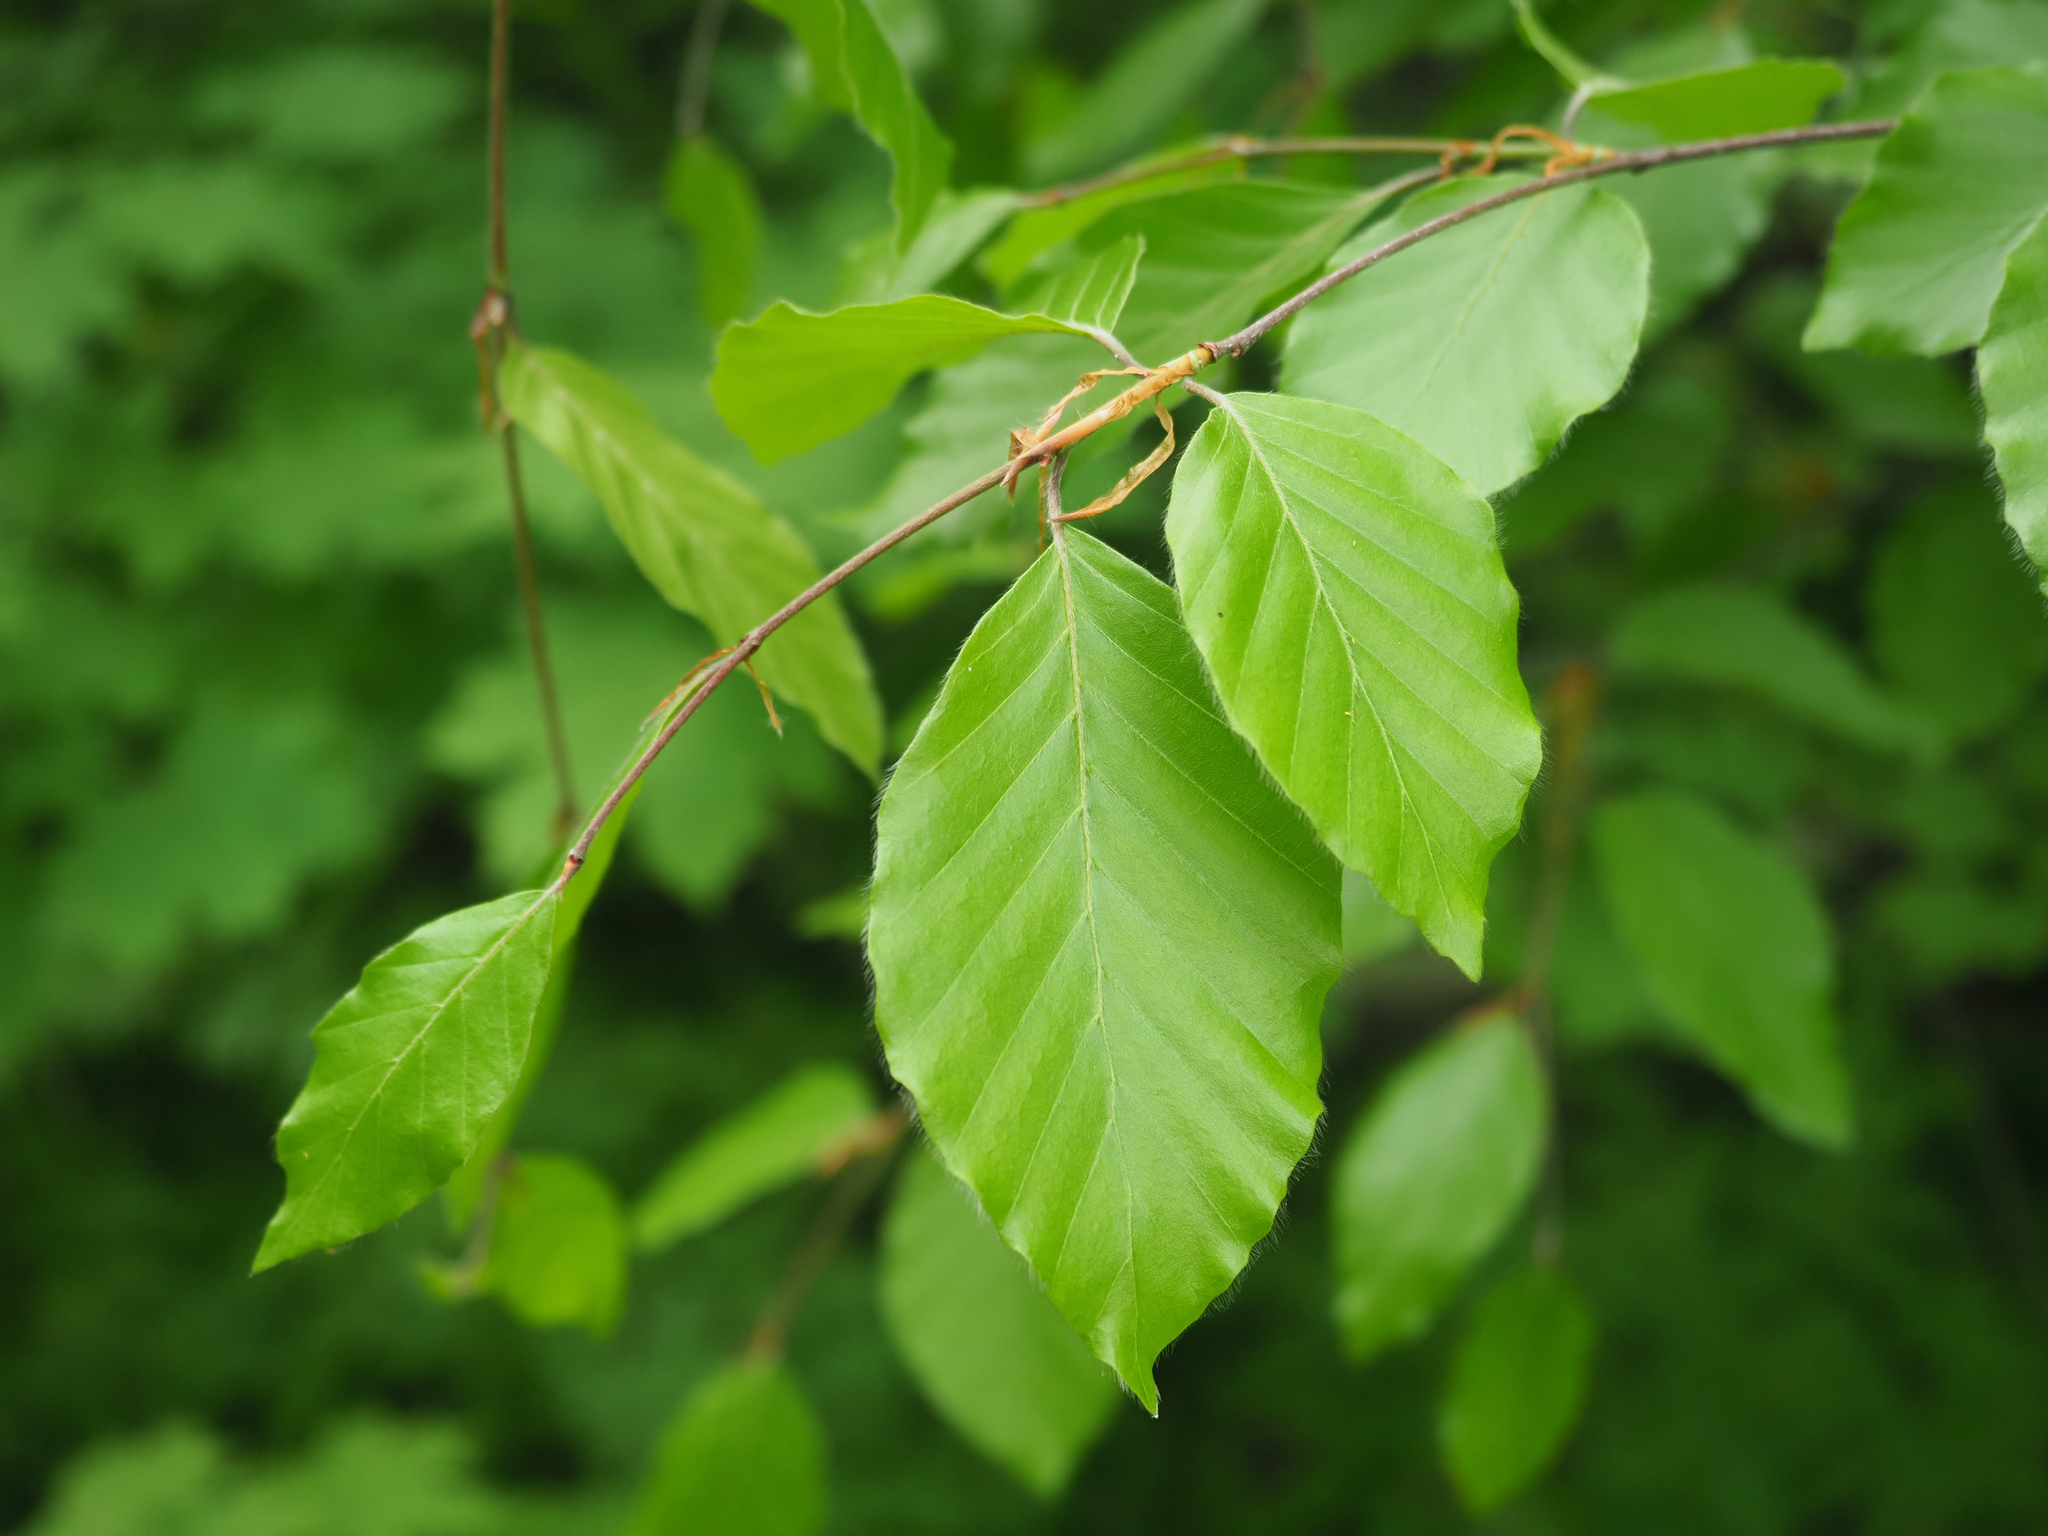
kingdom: Plantae
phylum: Tracheophyta
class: Magnoliopsida
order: Fagales
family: Fagaceae
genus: Fagus
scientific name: Fagus sylvatica
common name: Beech
